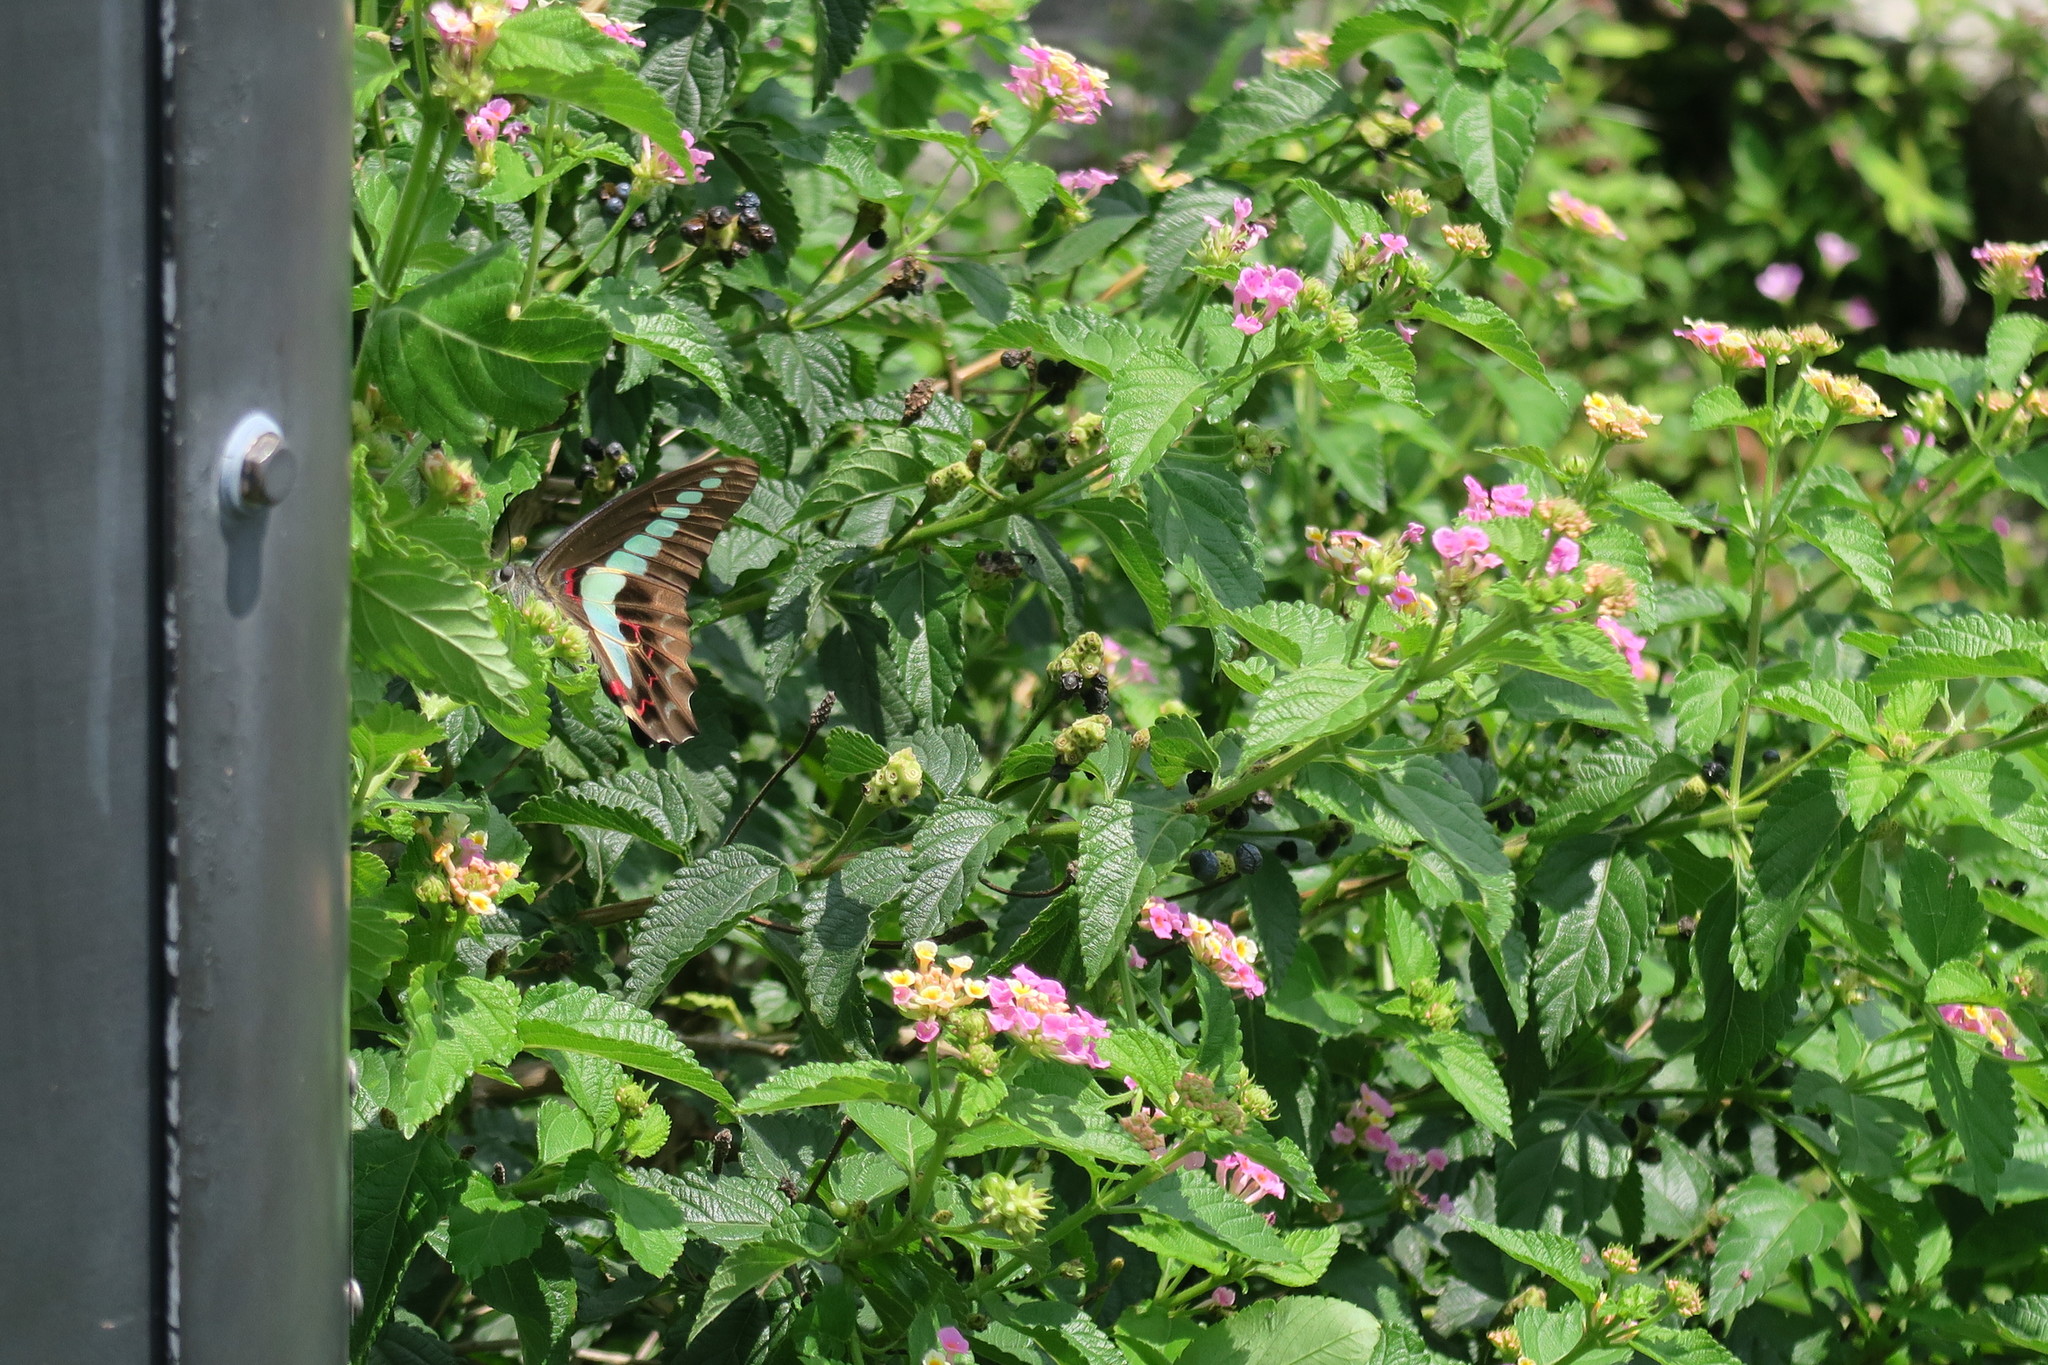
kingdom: Fungi
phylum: Ascomycota
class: Sordariomycetes
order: Microascales
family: Microascaceae
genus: Graphium
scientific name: Graphium sarpedon
